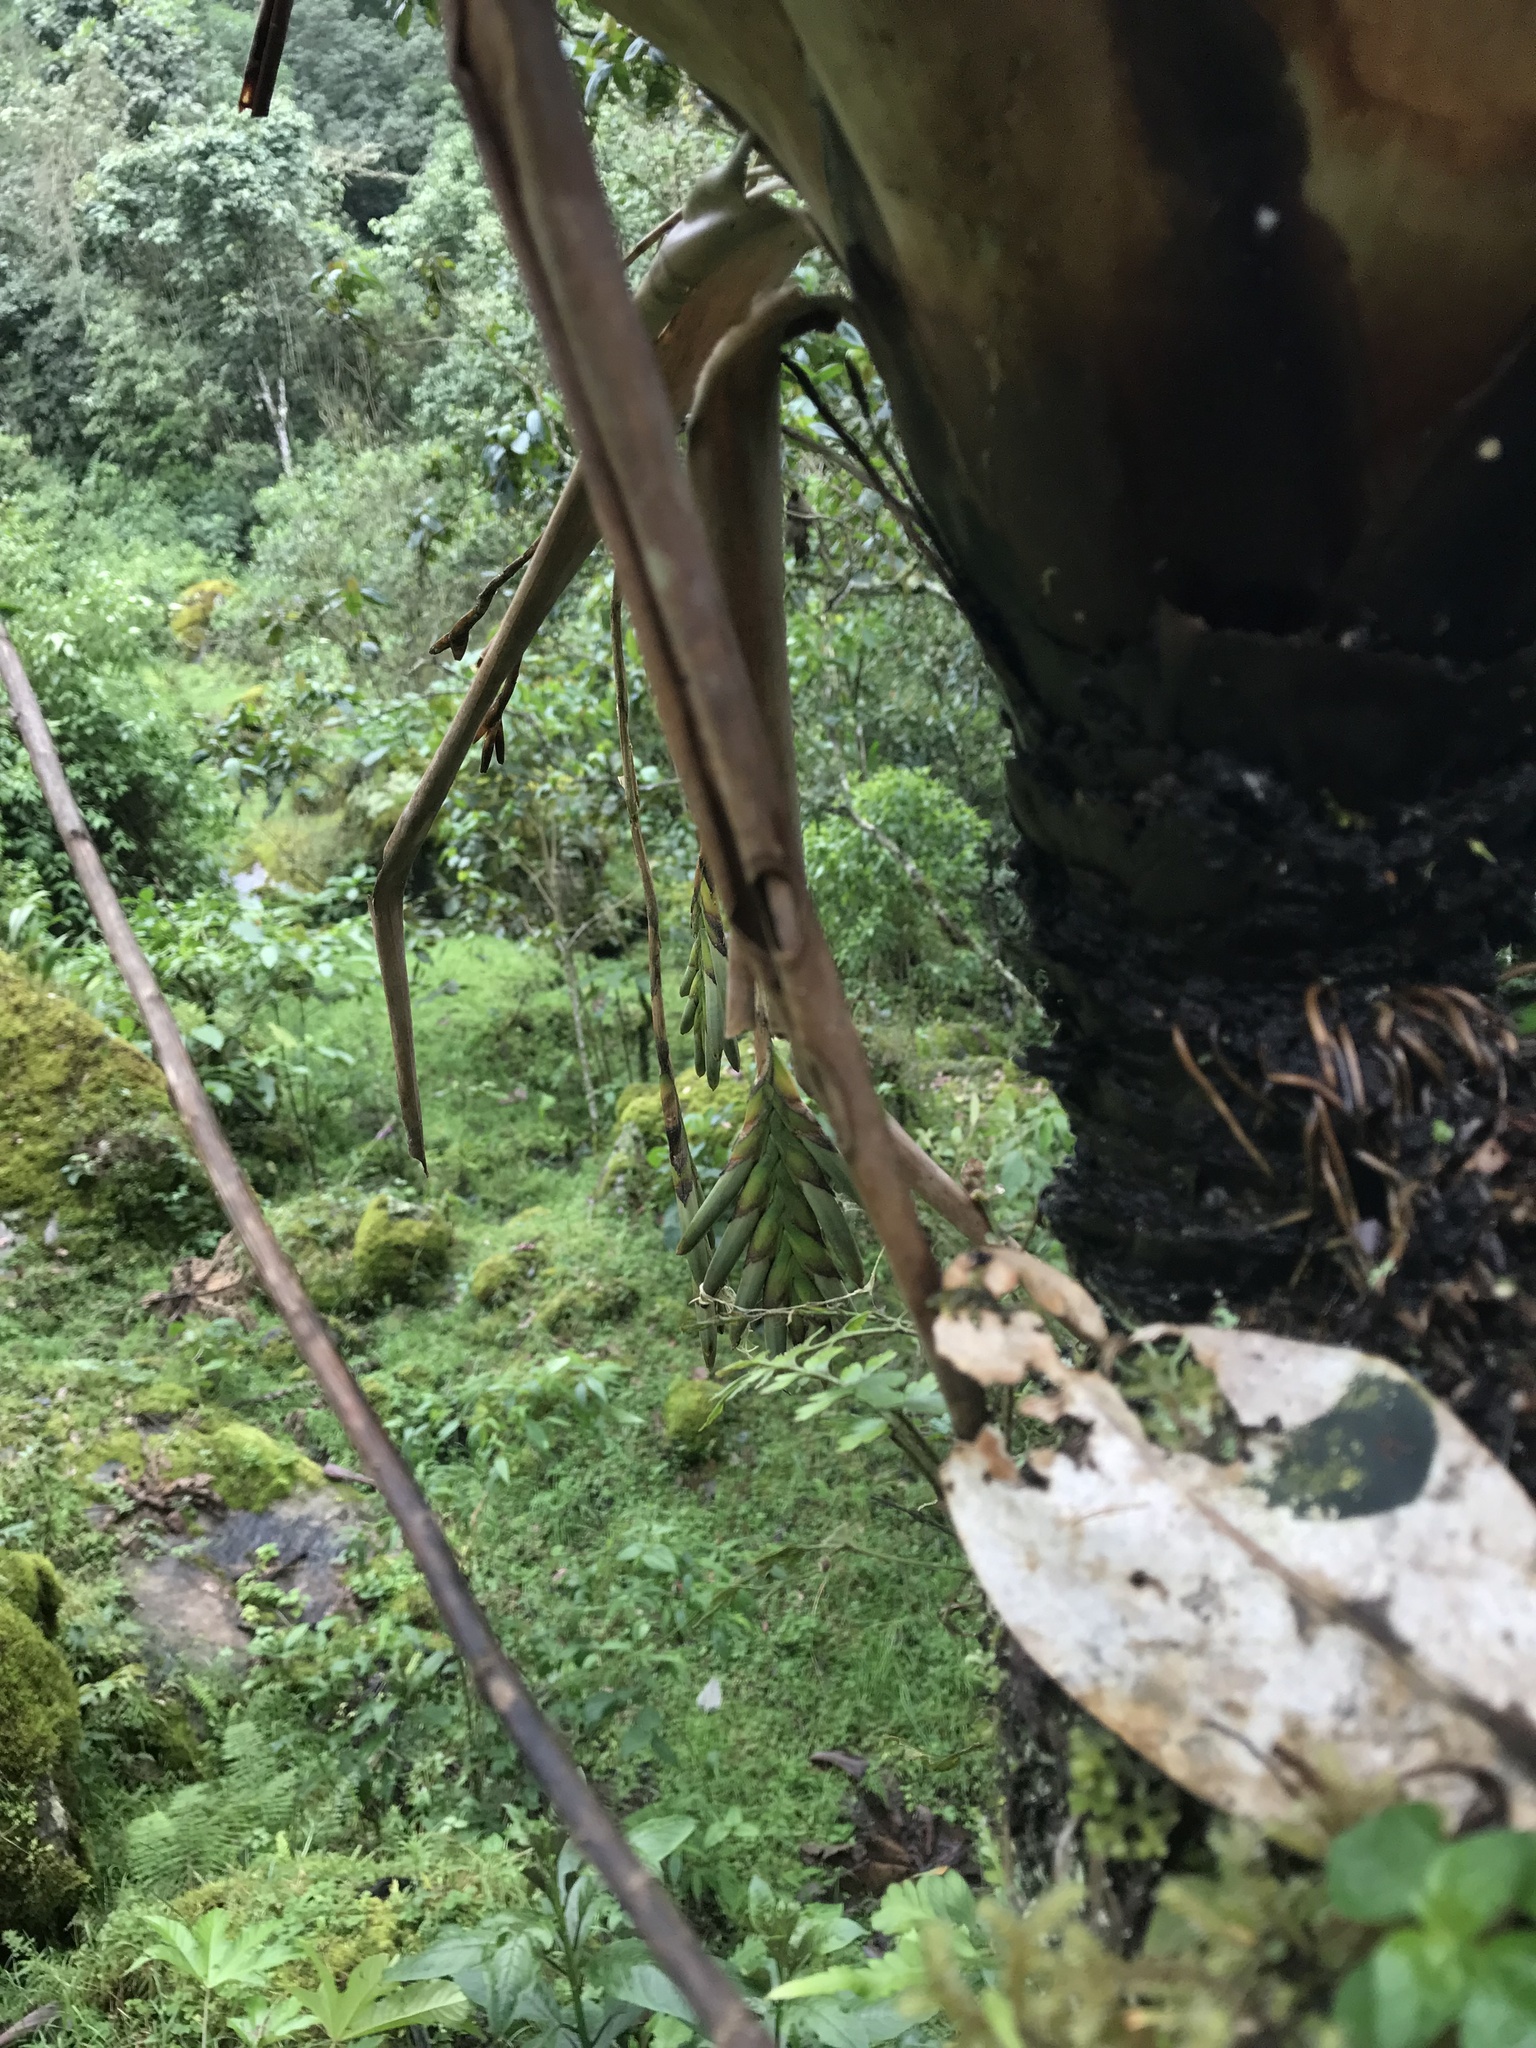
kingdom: Plantae
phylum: Tracheophyta
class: Liliopsida
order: Poales
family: Bromeliaceae
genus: Tillandsia
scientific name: Tillandsia complanata
